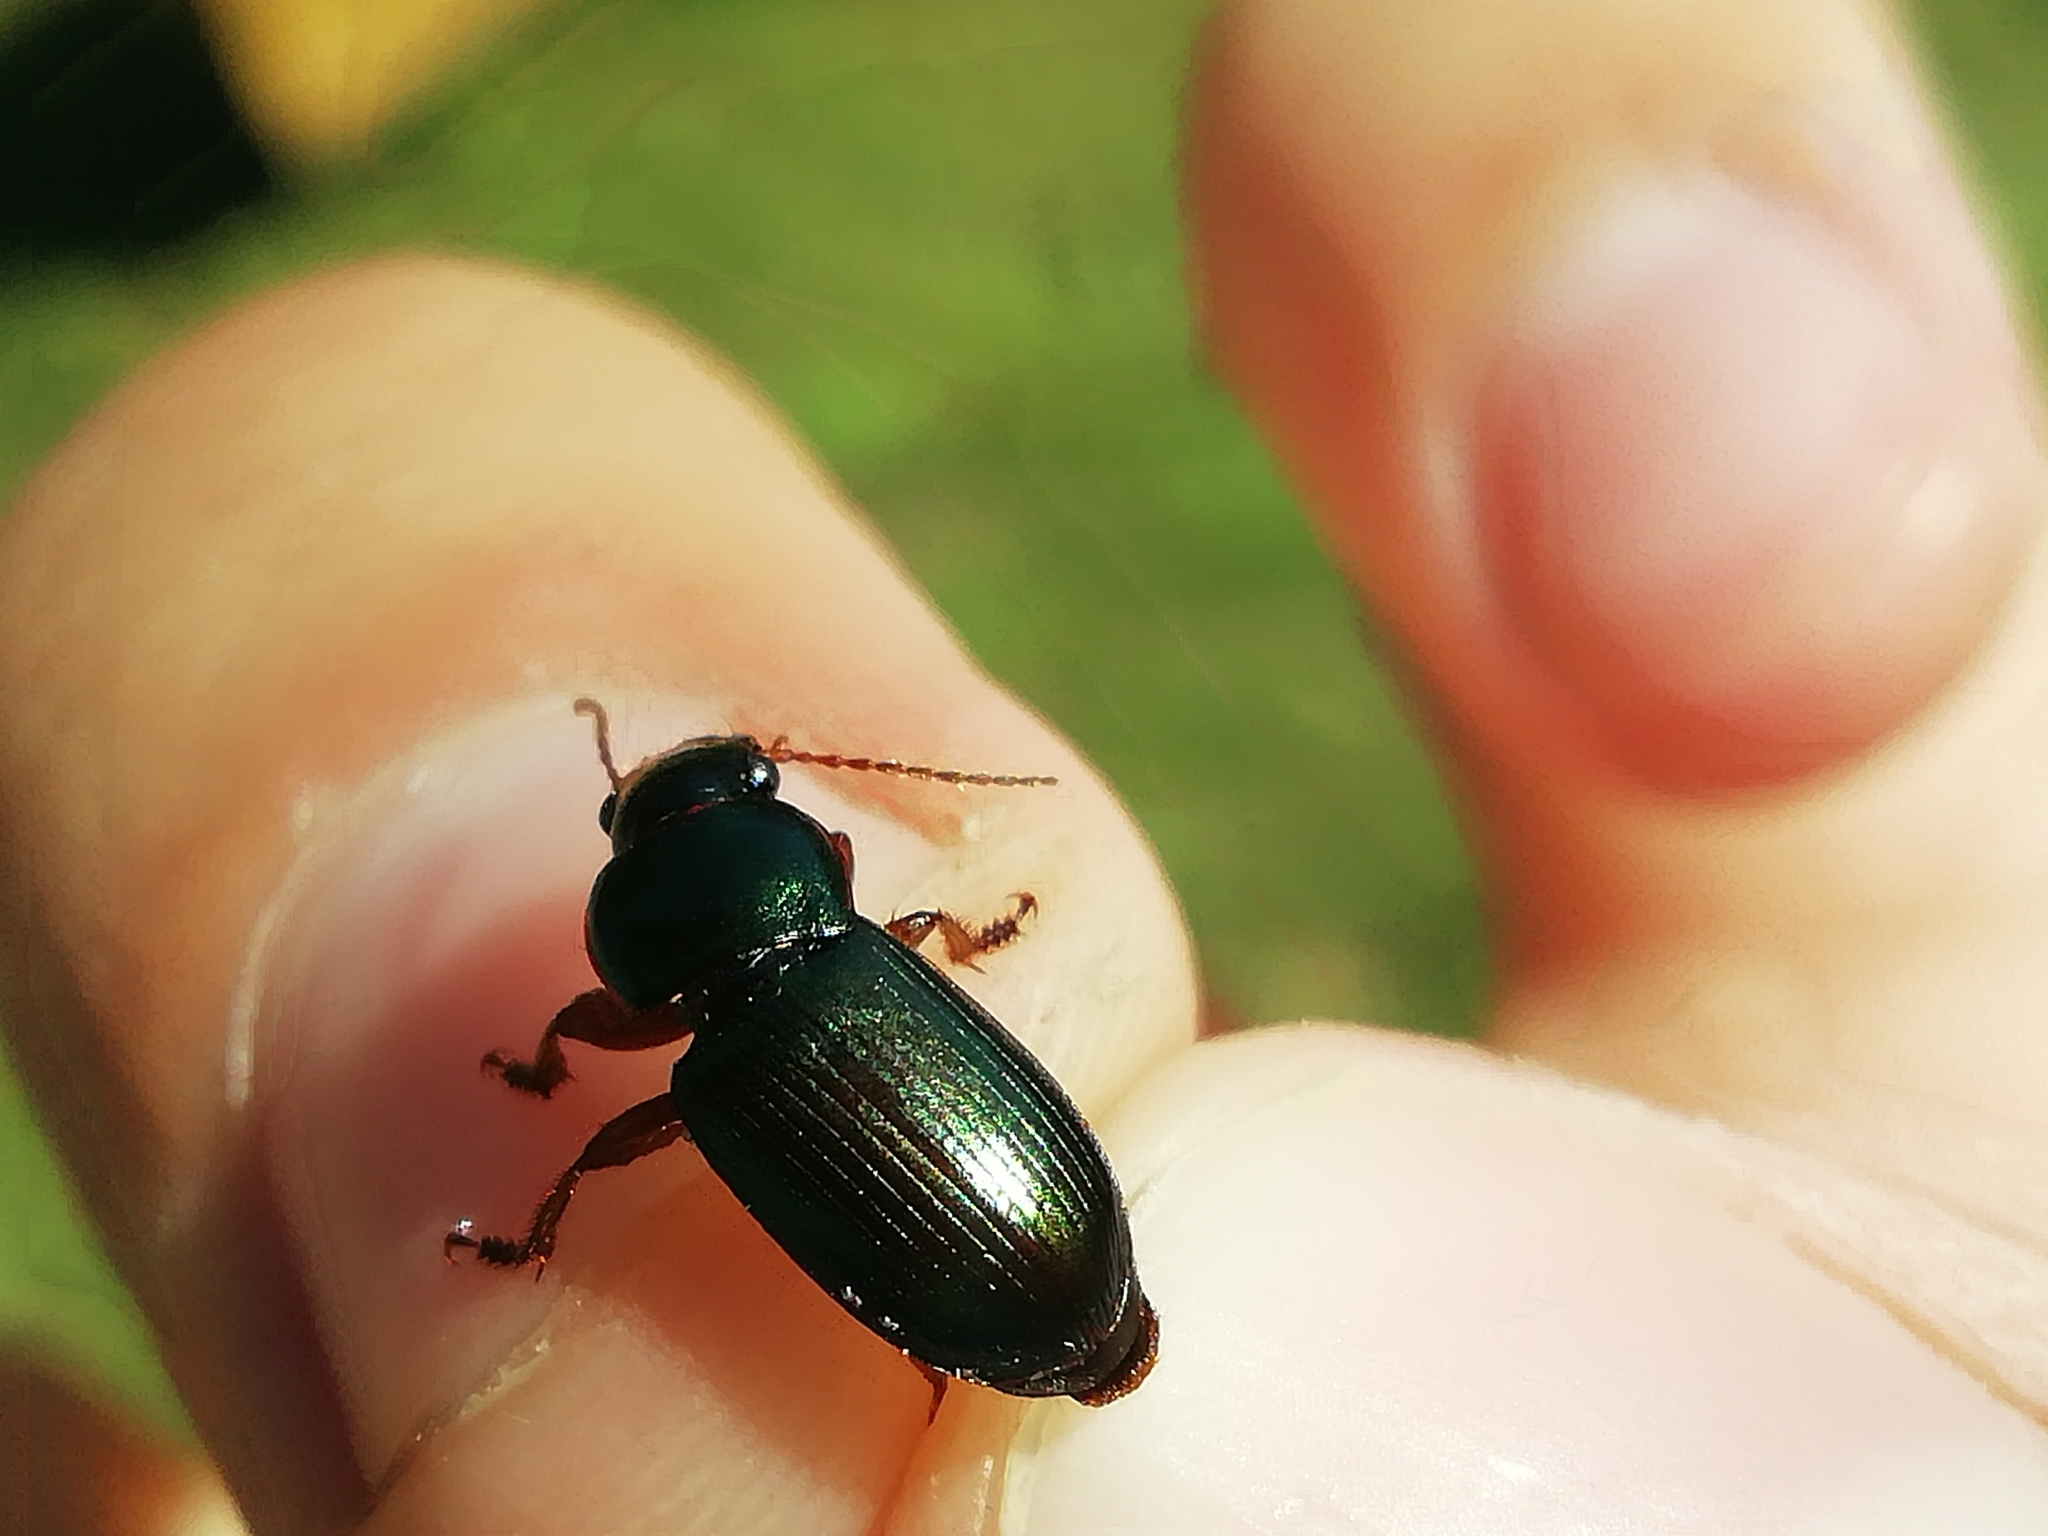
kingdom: Animalia
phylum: Arthropoda
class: Insecta
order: Coleoptera
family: Carabidae
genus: Harpalus
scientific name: Harpalus affinis
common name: Polychrome harp ground beetle
